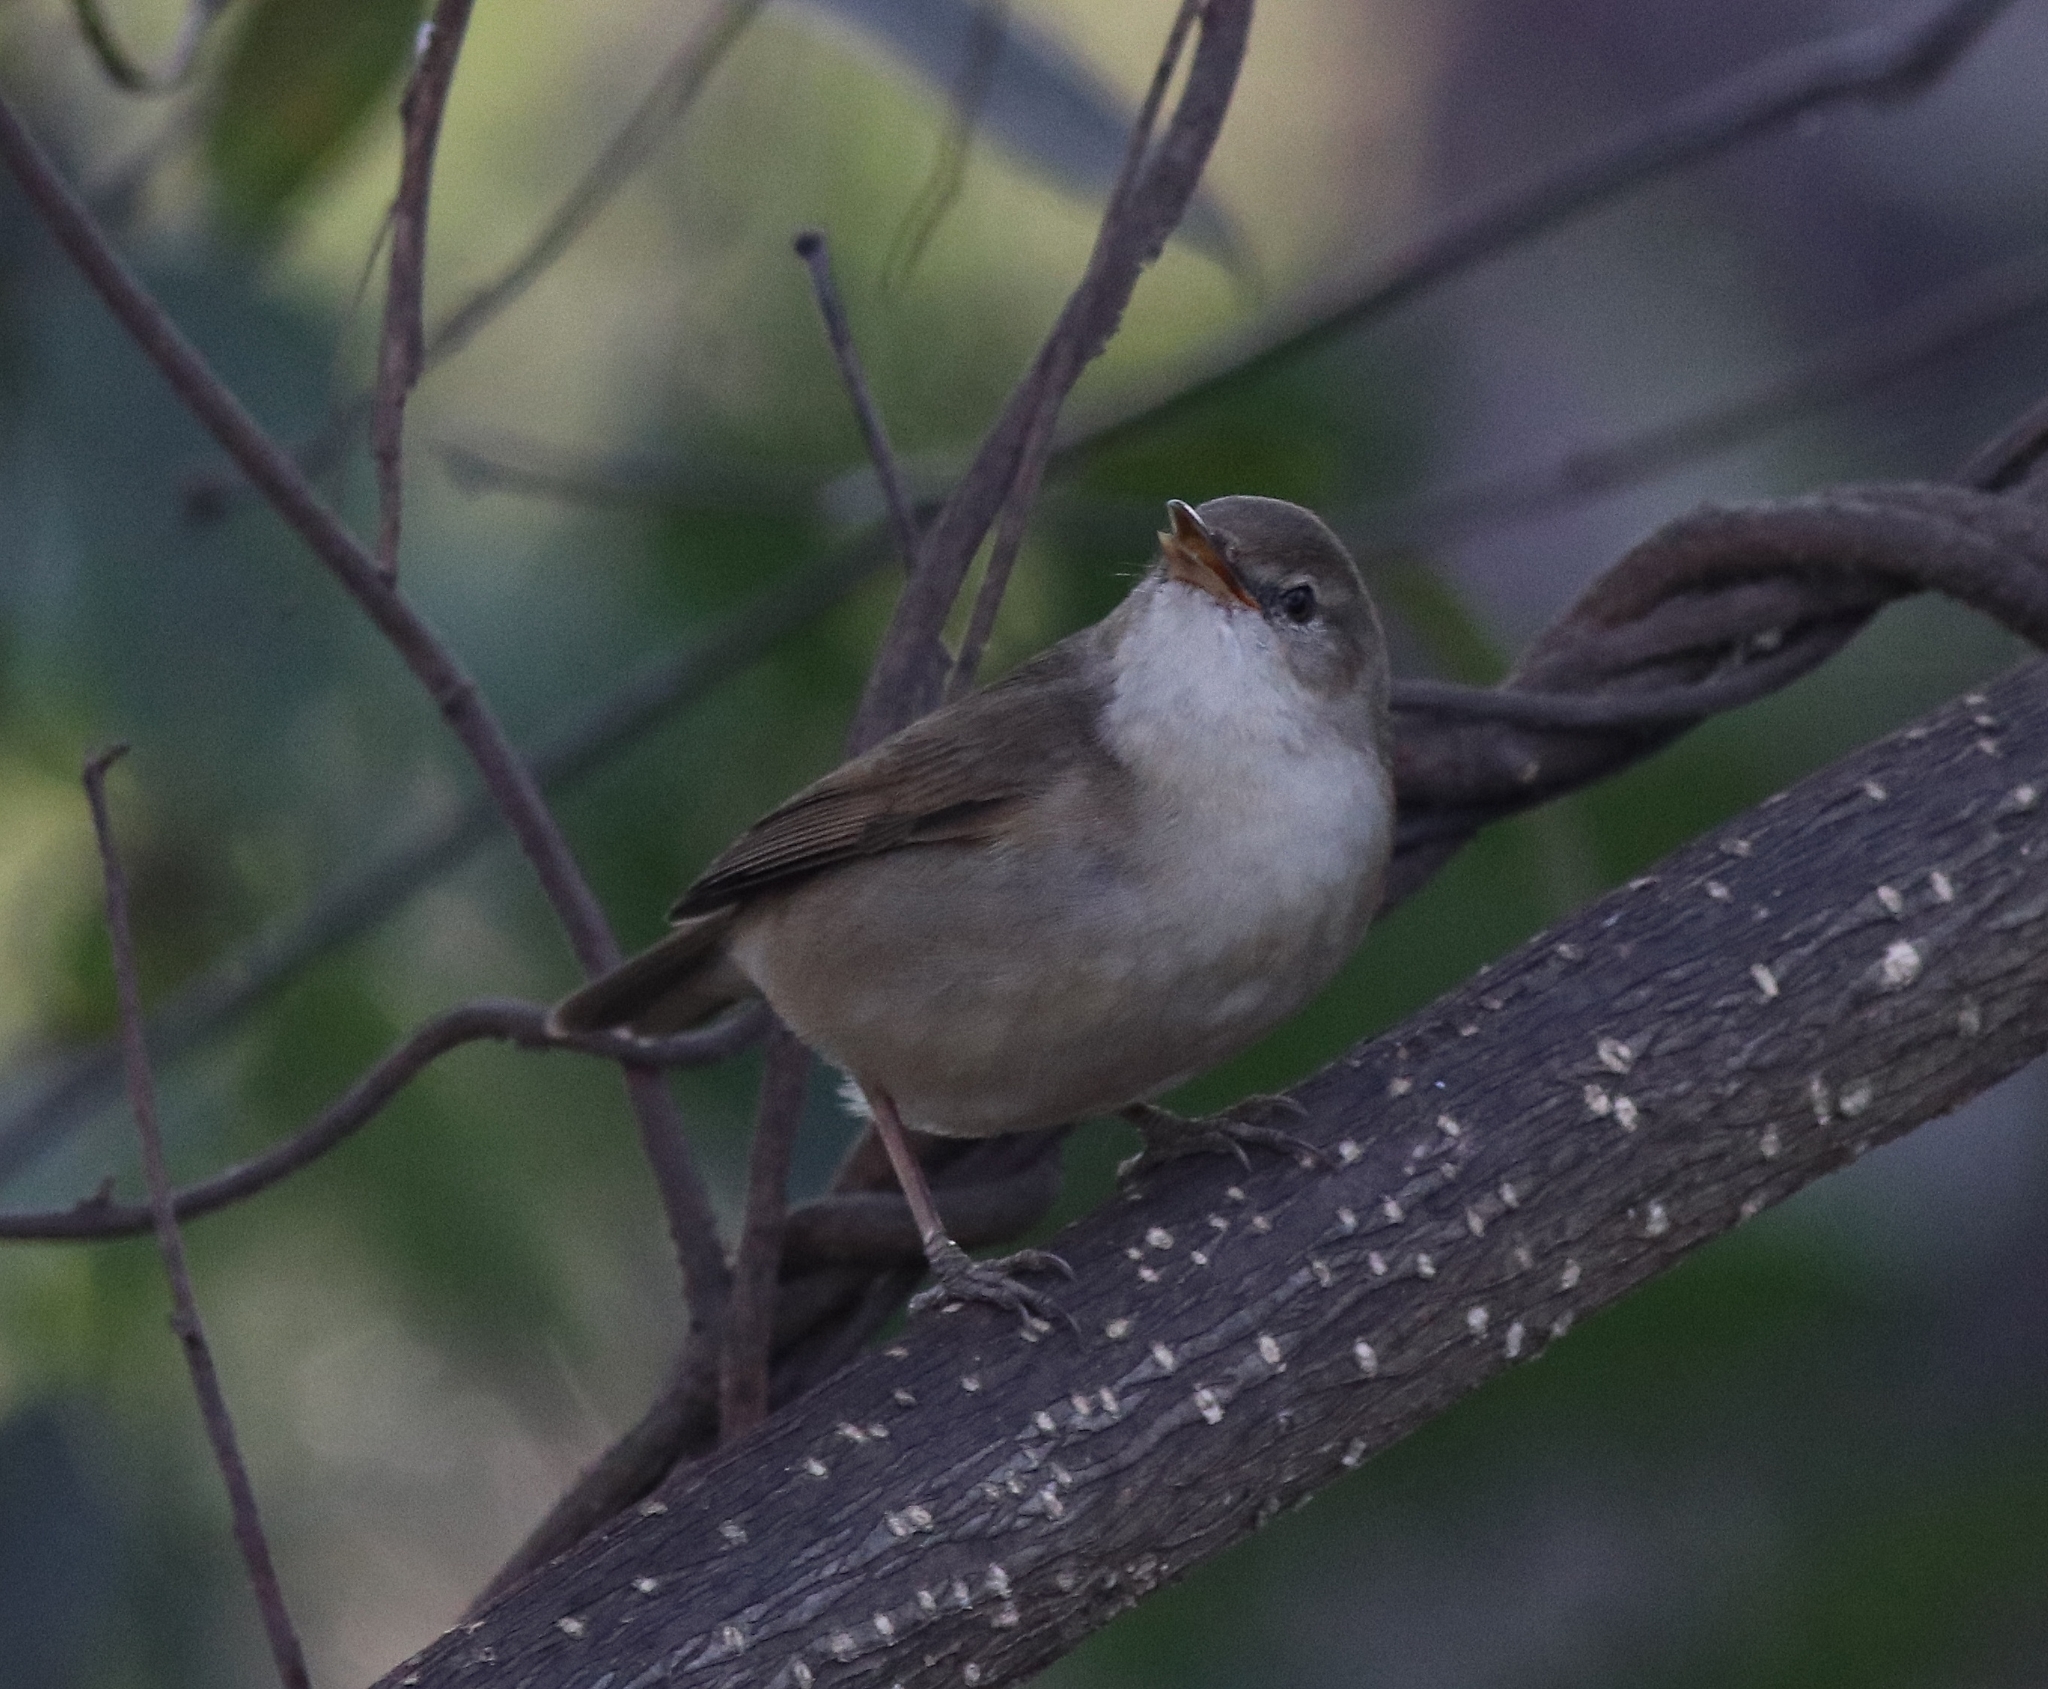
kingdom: Animalia
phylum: Chordata
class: Aves
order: Passeriformes
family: Acrocephalidae
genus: Acrocephalus
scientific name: Acrocephalus dumetorum
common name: Blyth's reed warbler
